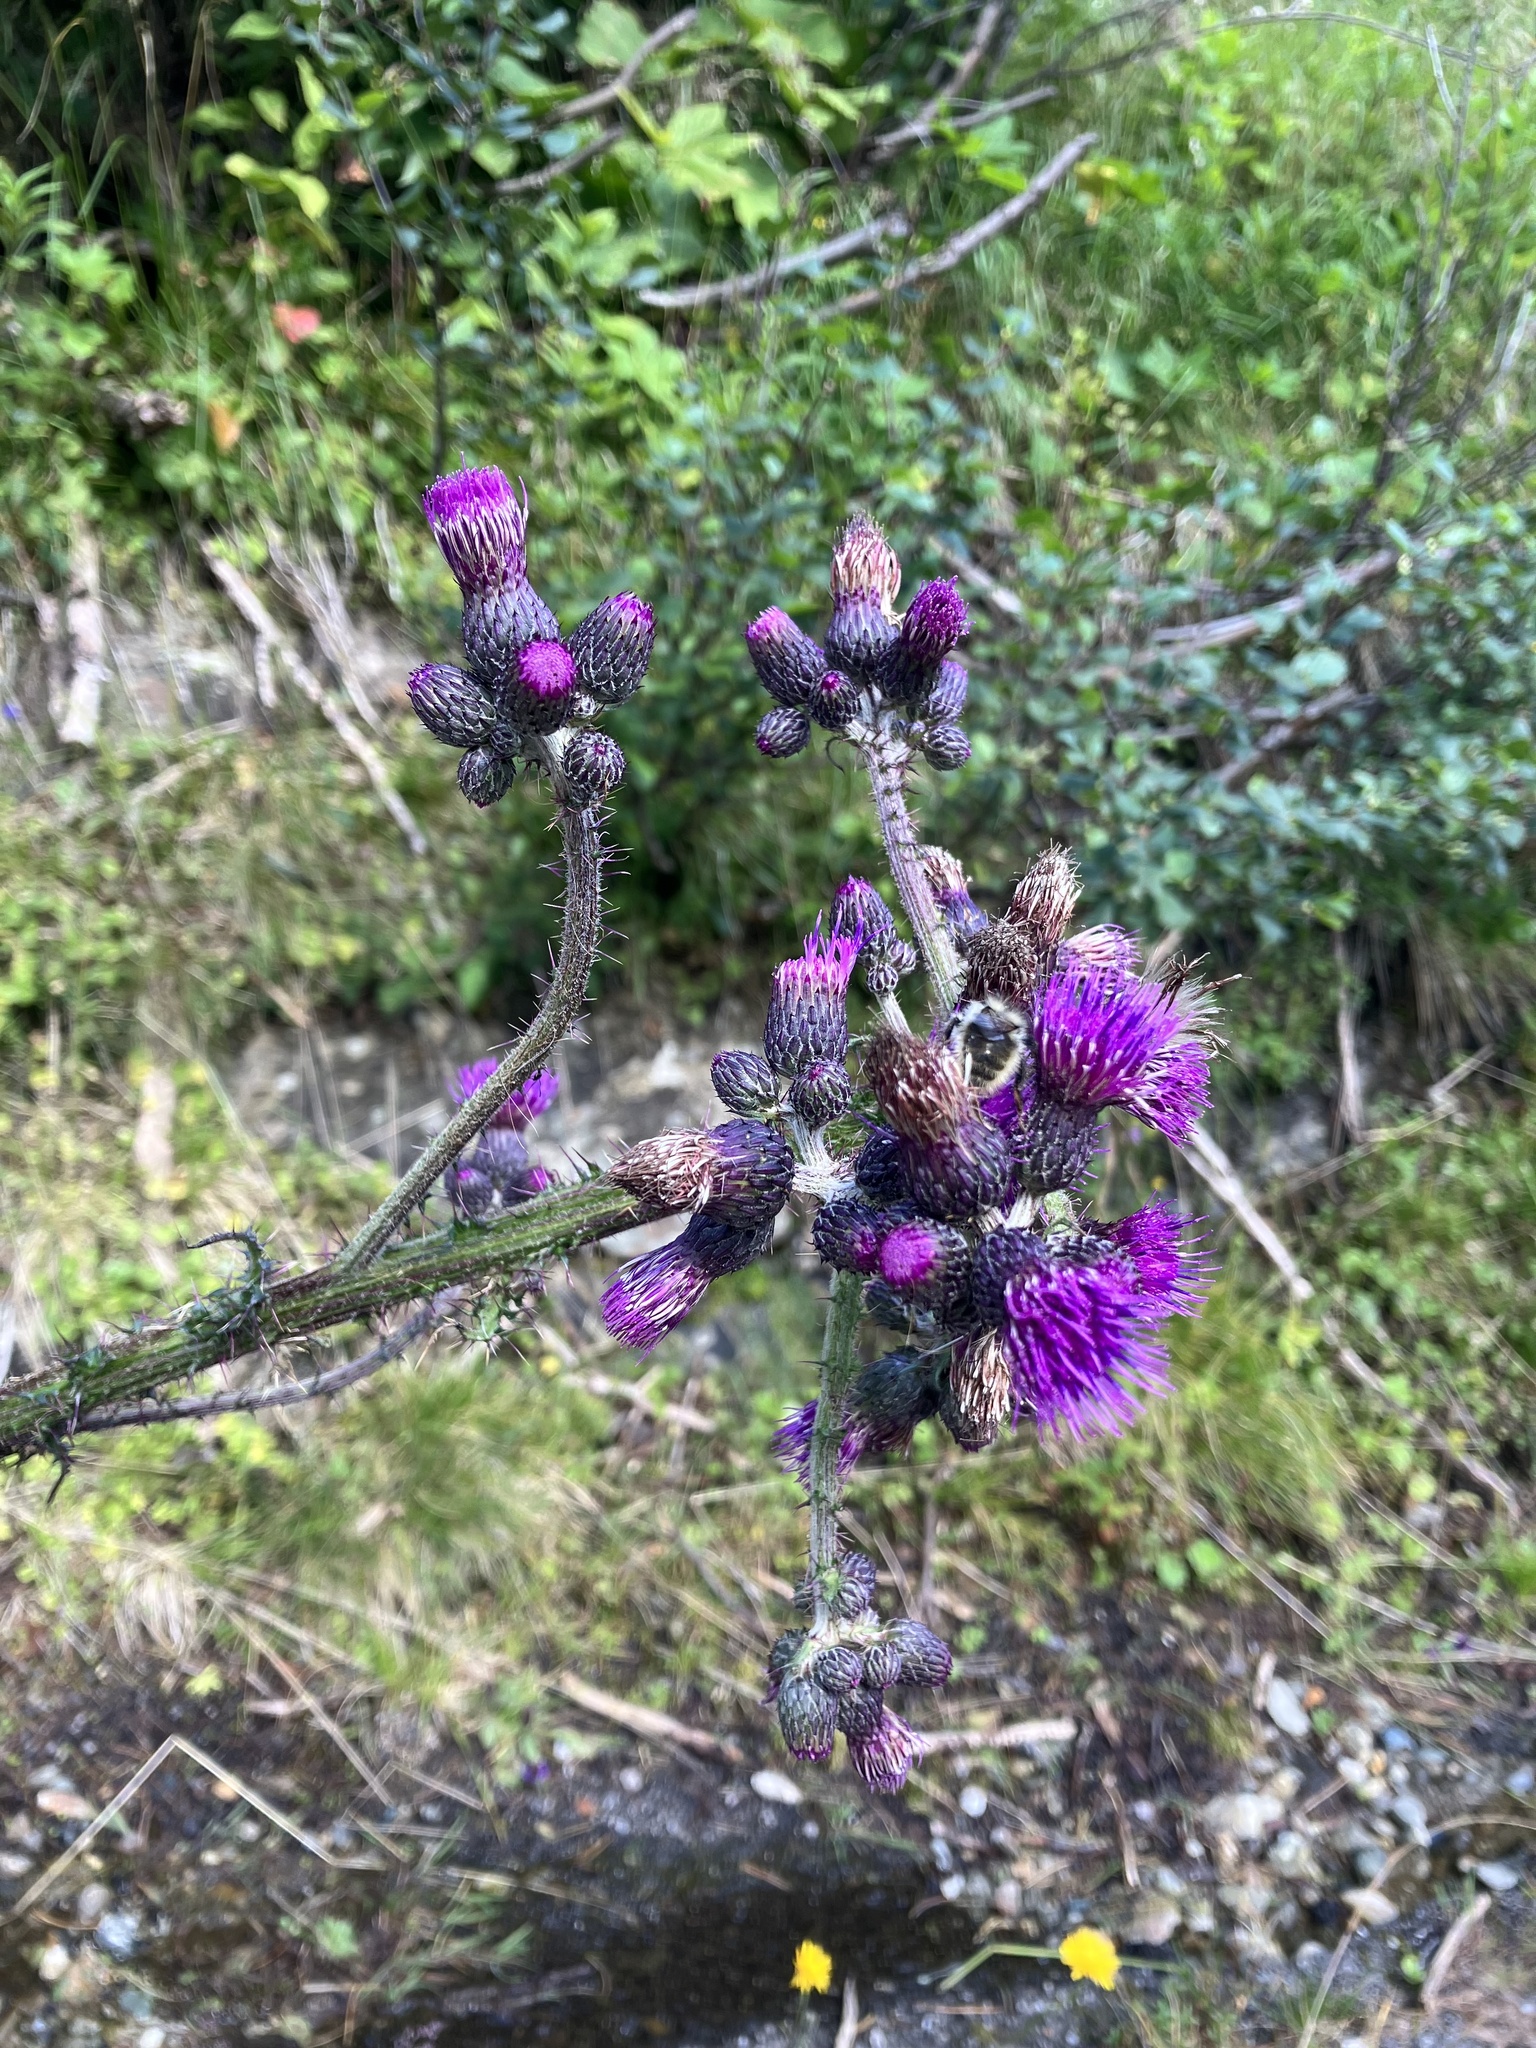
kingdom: Plantae
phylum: Tracheophyta
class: Magnoliopsida
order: Asterales
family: Asteraceae
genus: Cirsium
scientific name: Cirsium palustre
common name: Marsh thistle
